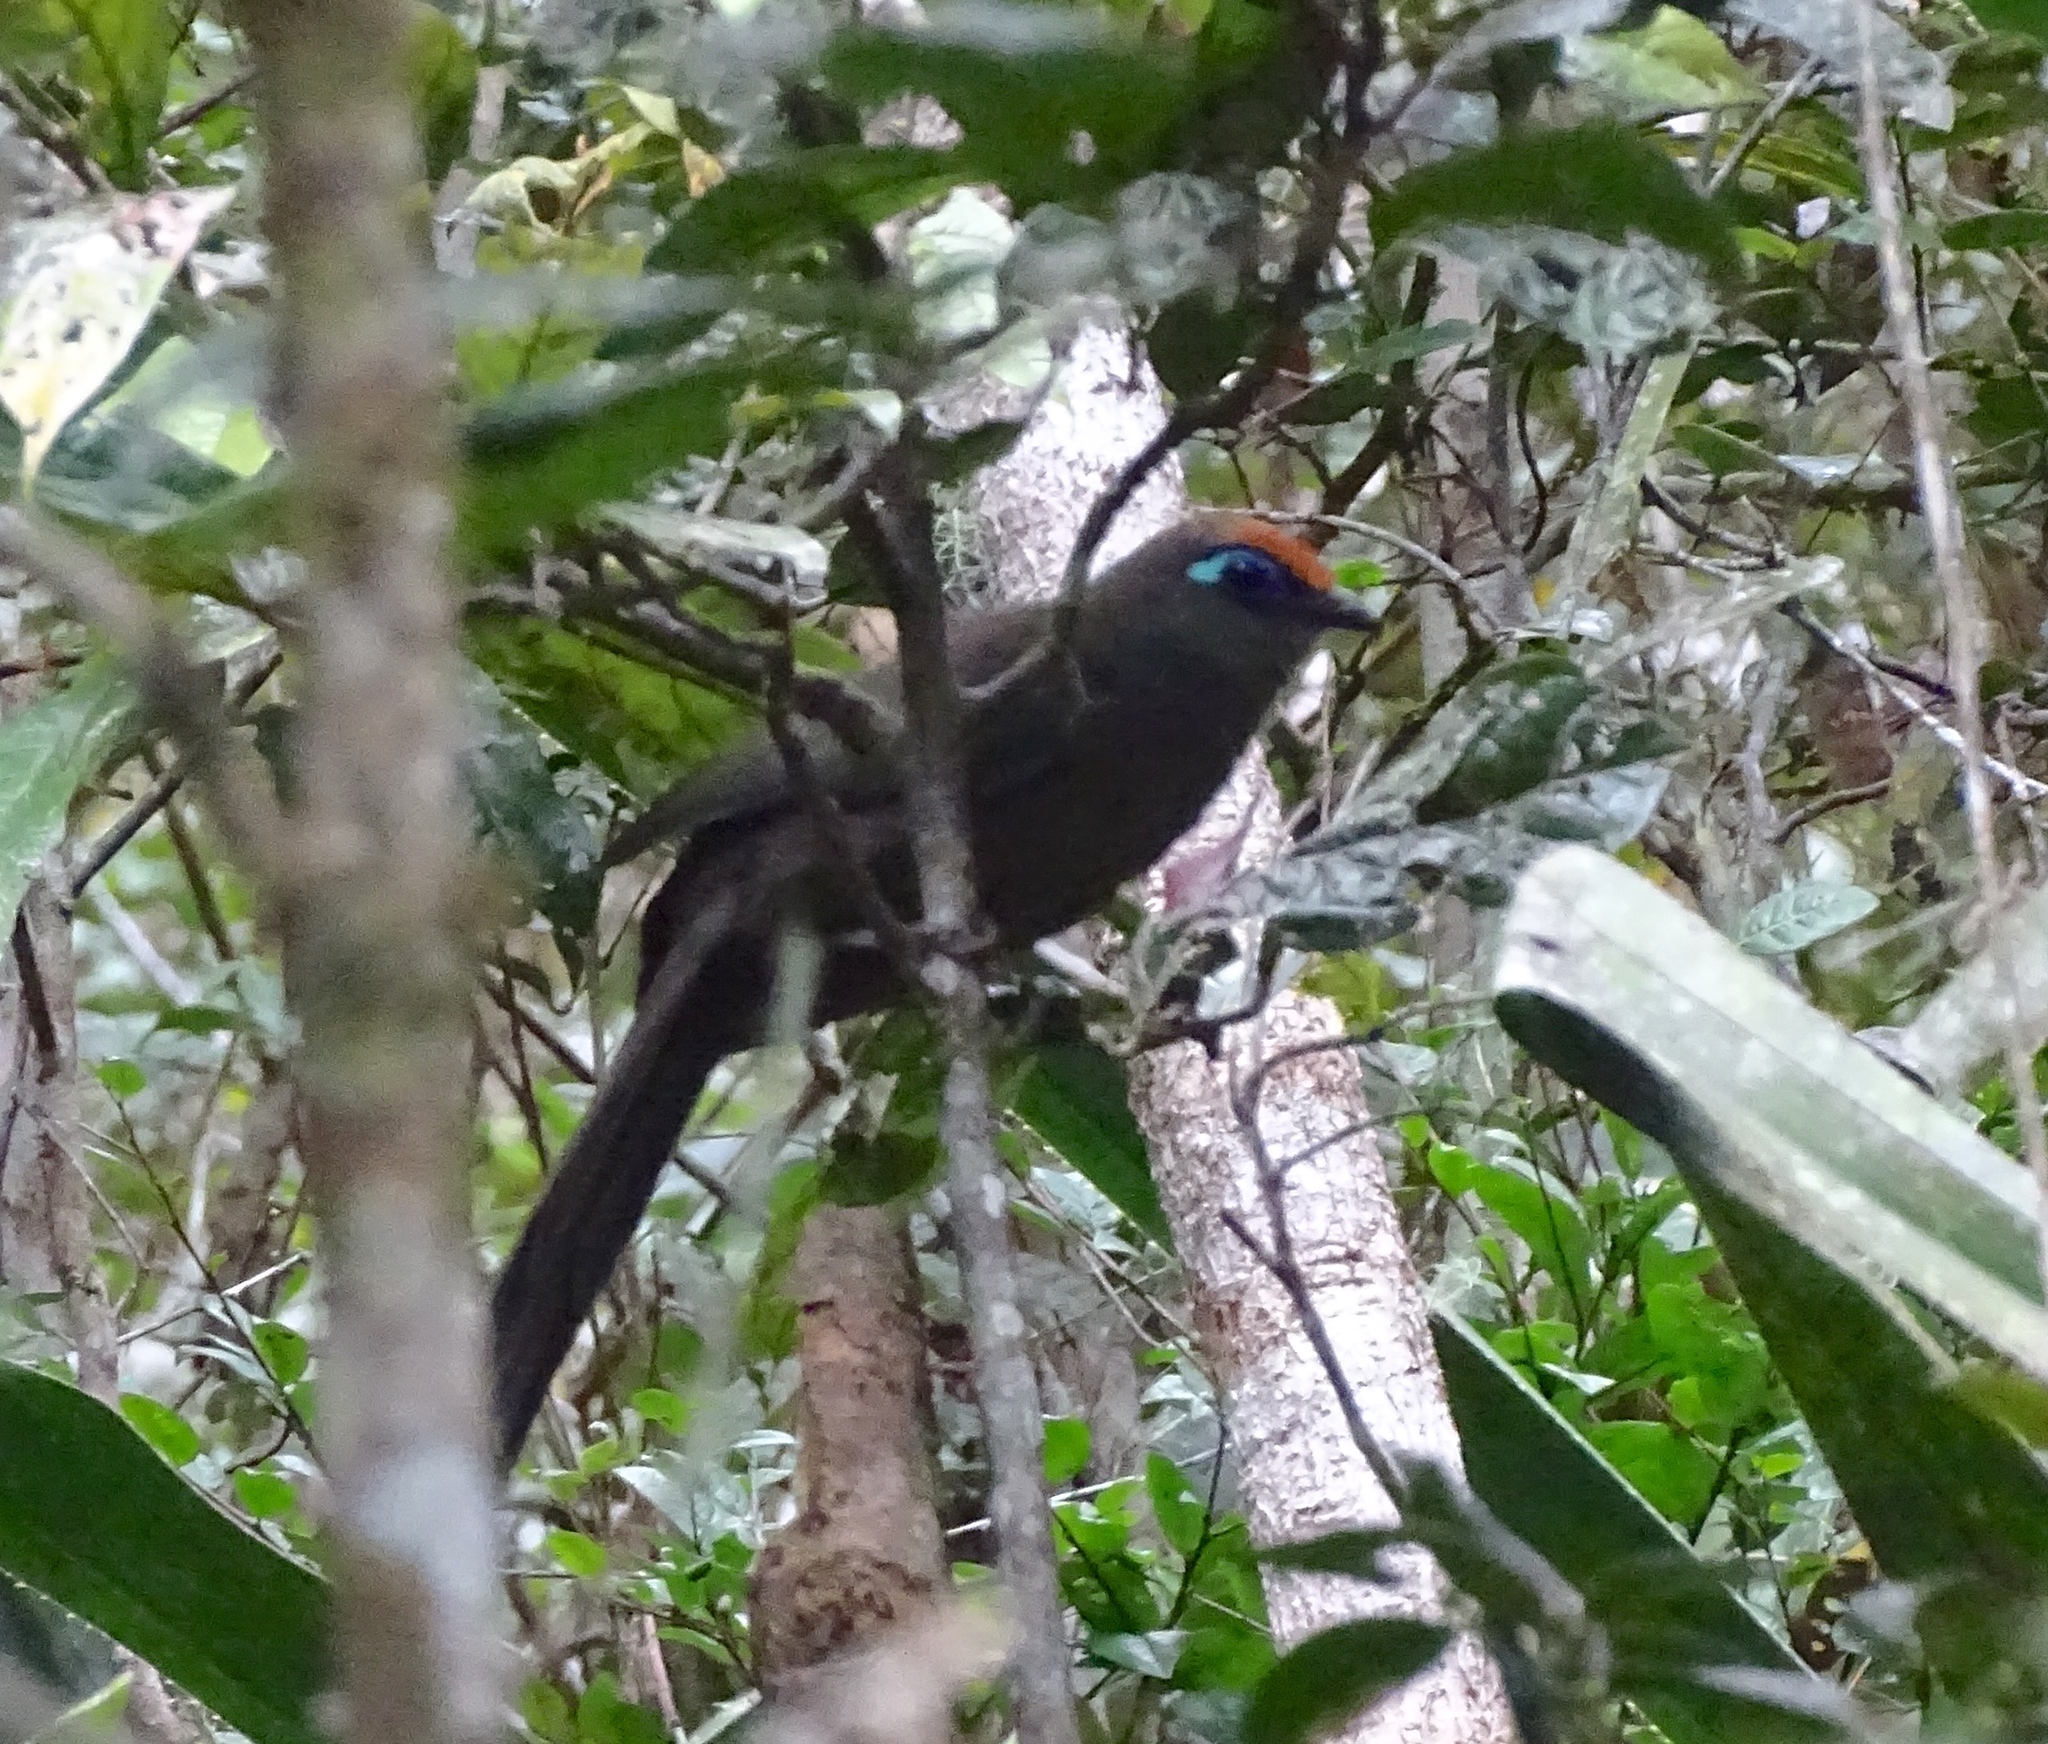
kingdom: Animalia
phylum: Chordata
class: Aves
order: Cuculiformes
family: Cuculidae
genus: Coua
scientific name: Coua reynaudii
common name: Red-fronted coua
